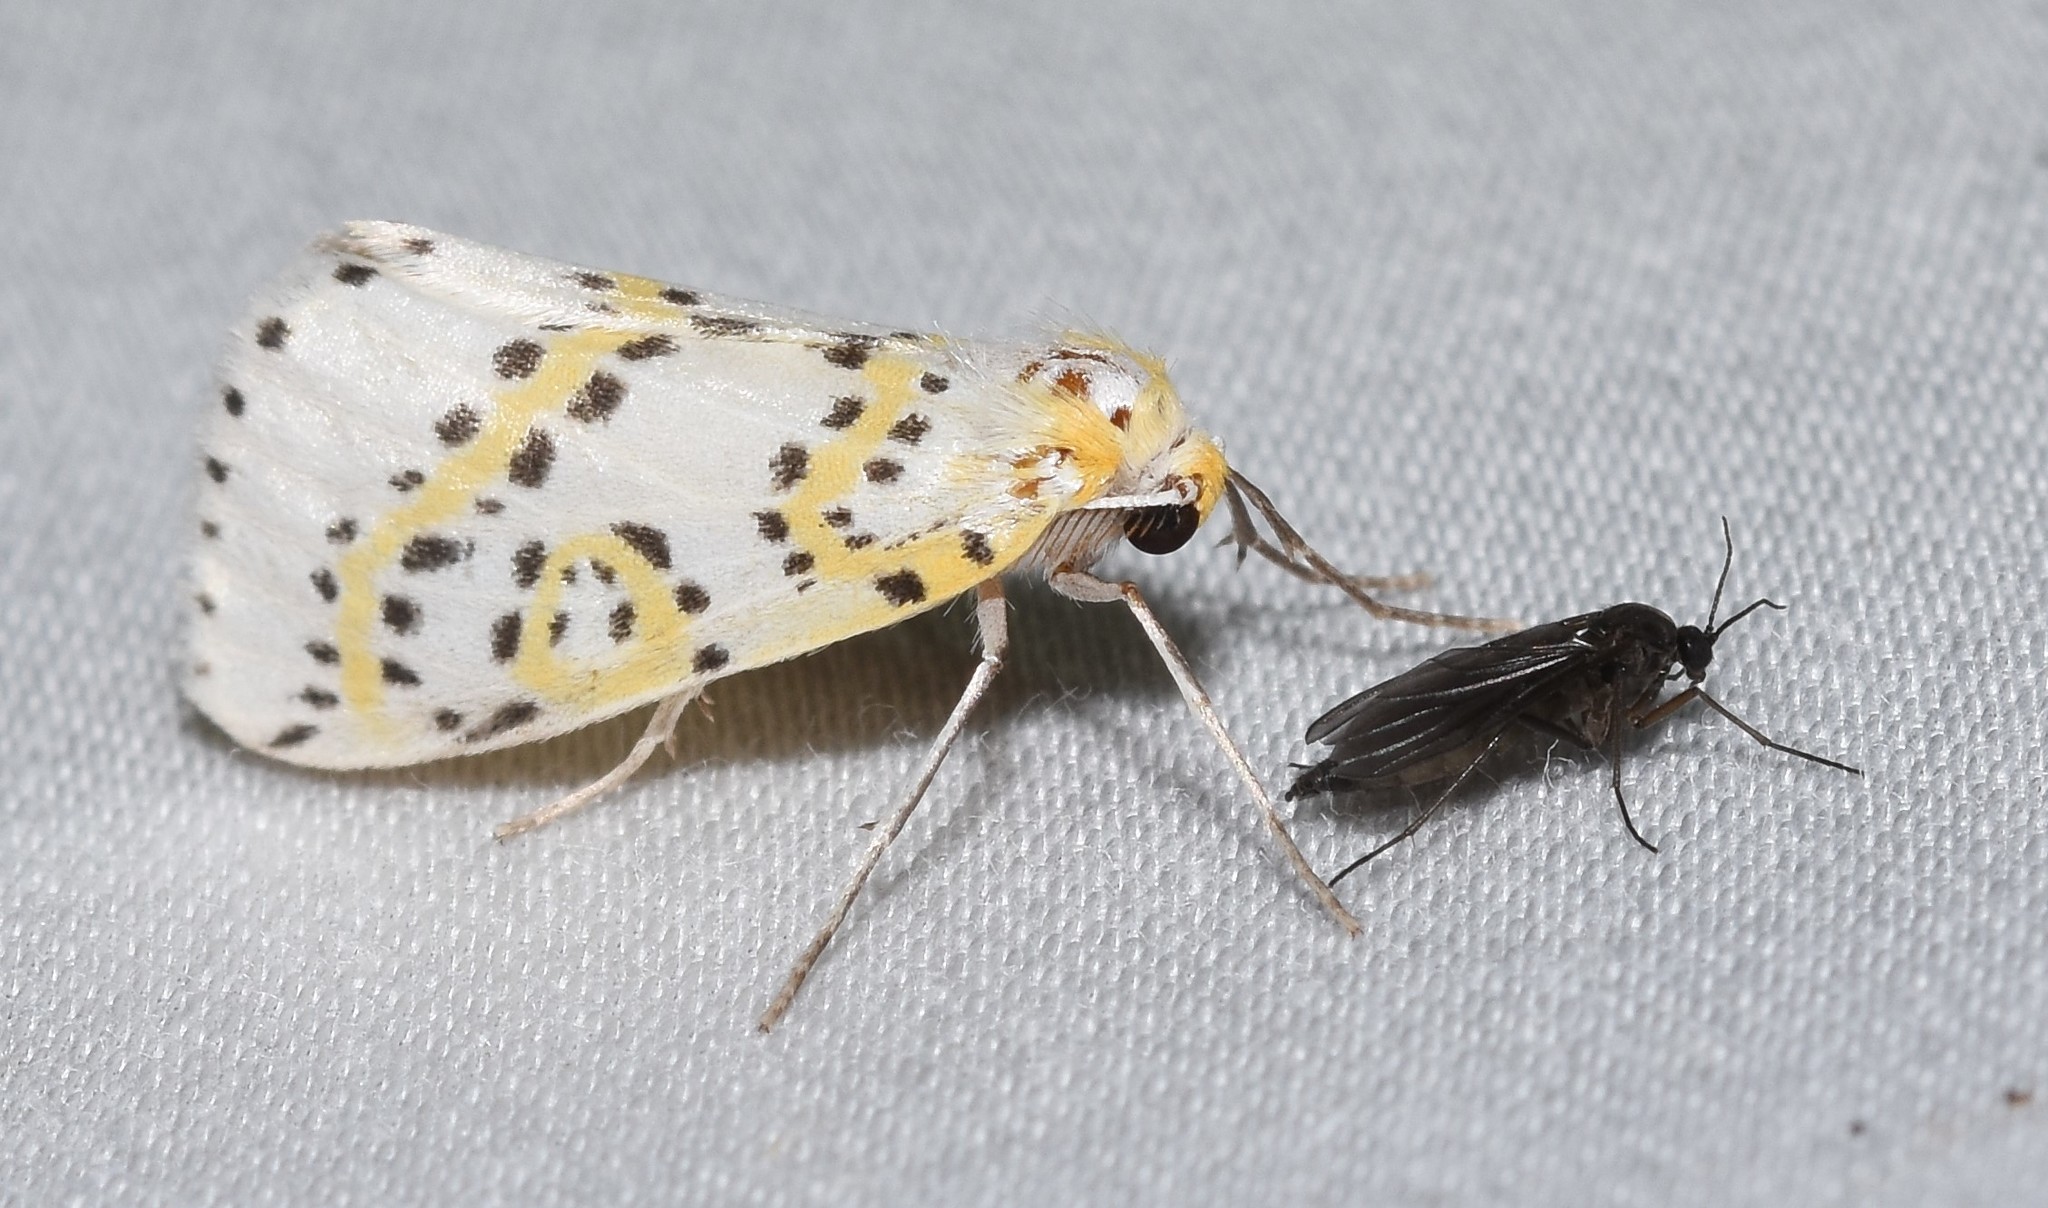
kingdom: Animalia
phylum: Arthropoda
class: Insecta
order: Lepidoptera
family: Geometridae
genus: Philtraea
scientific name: Philtraea monillata
